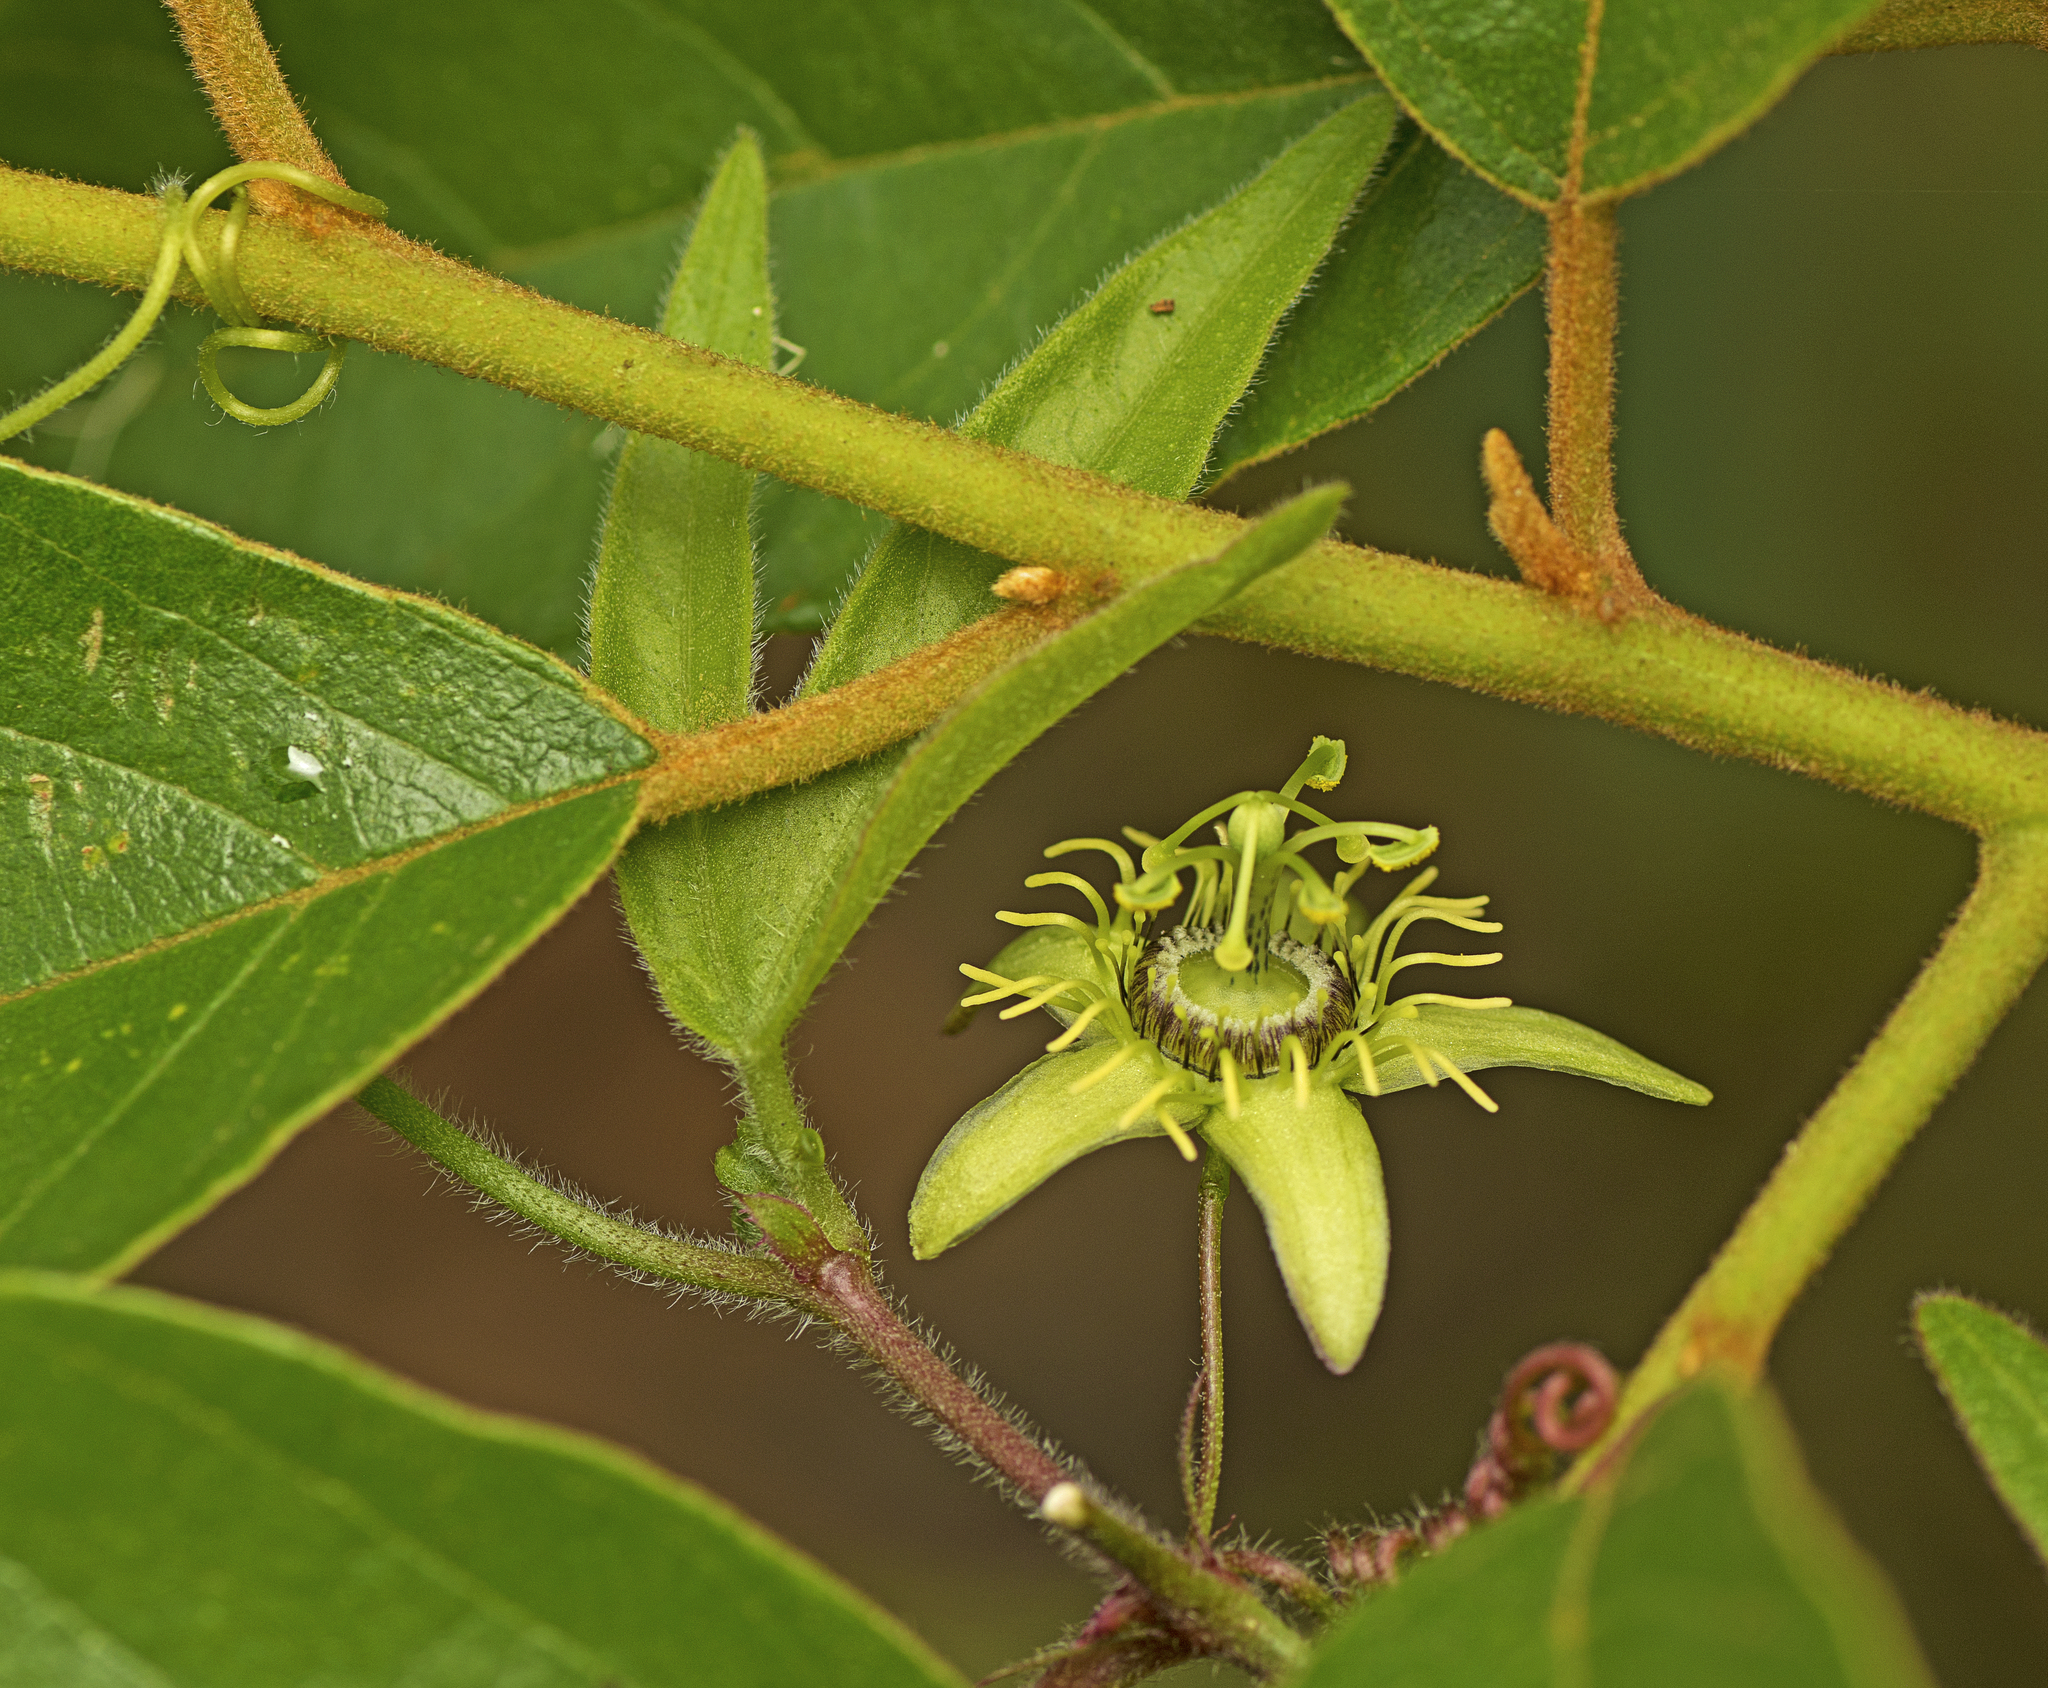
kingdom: Plantae
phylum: Tracheophyta
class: Magnoliopsida
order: Malpighiales
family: Passifloraceae
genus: Passiflora
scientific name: Passiflora suberosa
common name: Wild passionfruit
